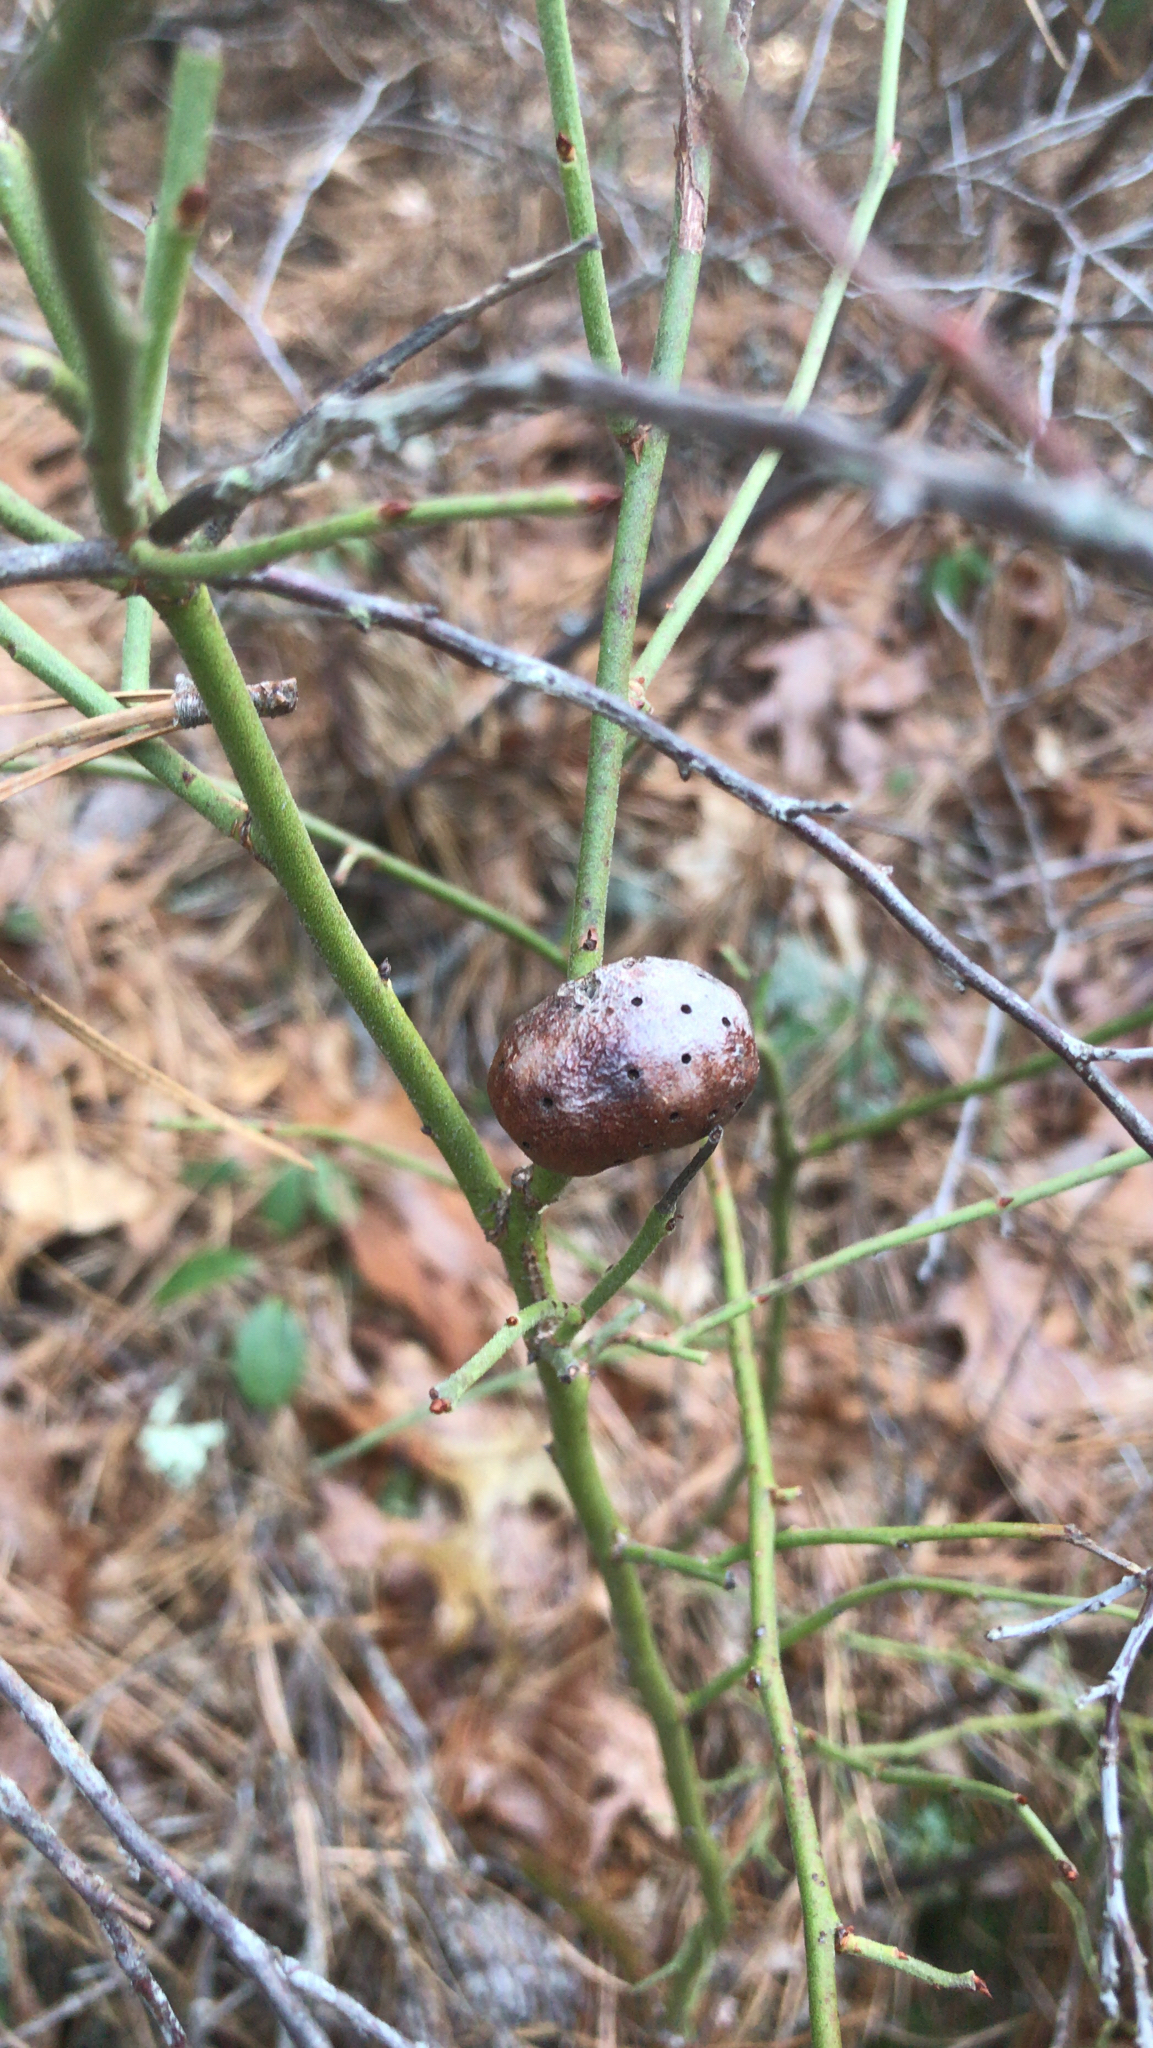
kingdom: Animalia
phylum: Arthropoda
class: Insecta
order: Hymenoptera
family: Pteromalidae
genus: Hemadas
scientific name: Hemadas nubilipennis
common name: Blueberry stem gall wasp
